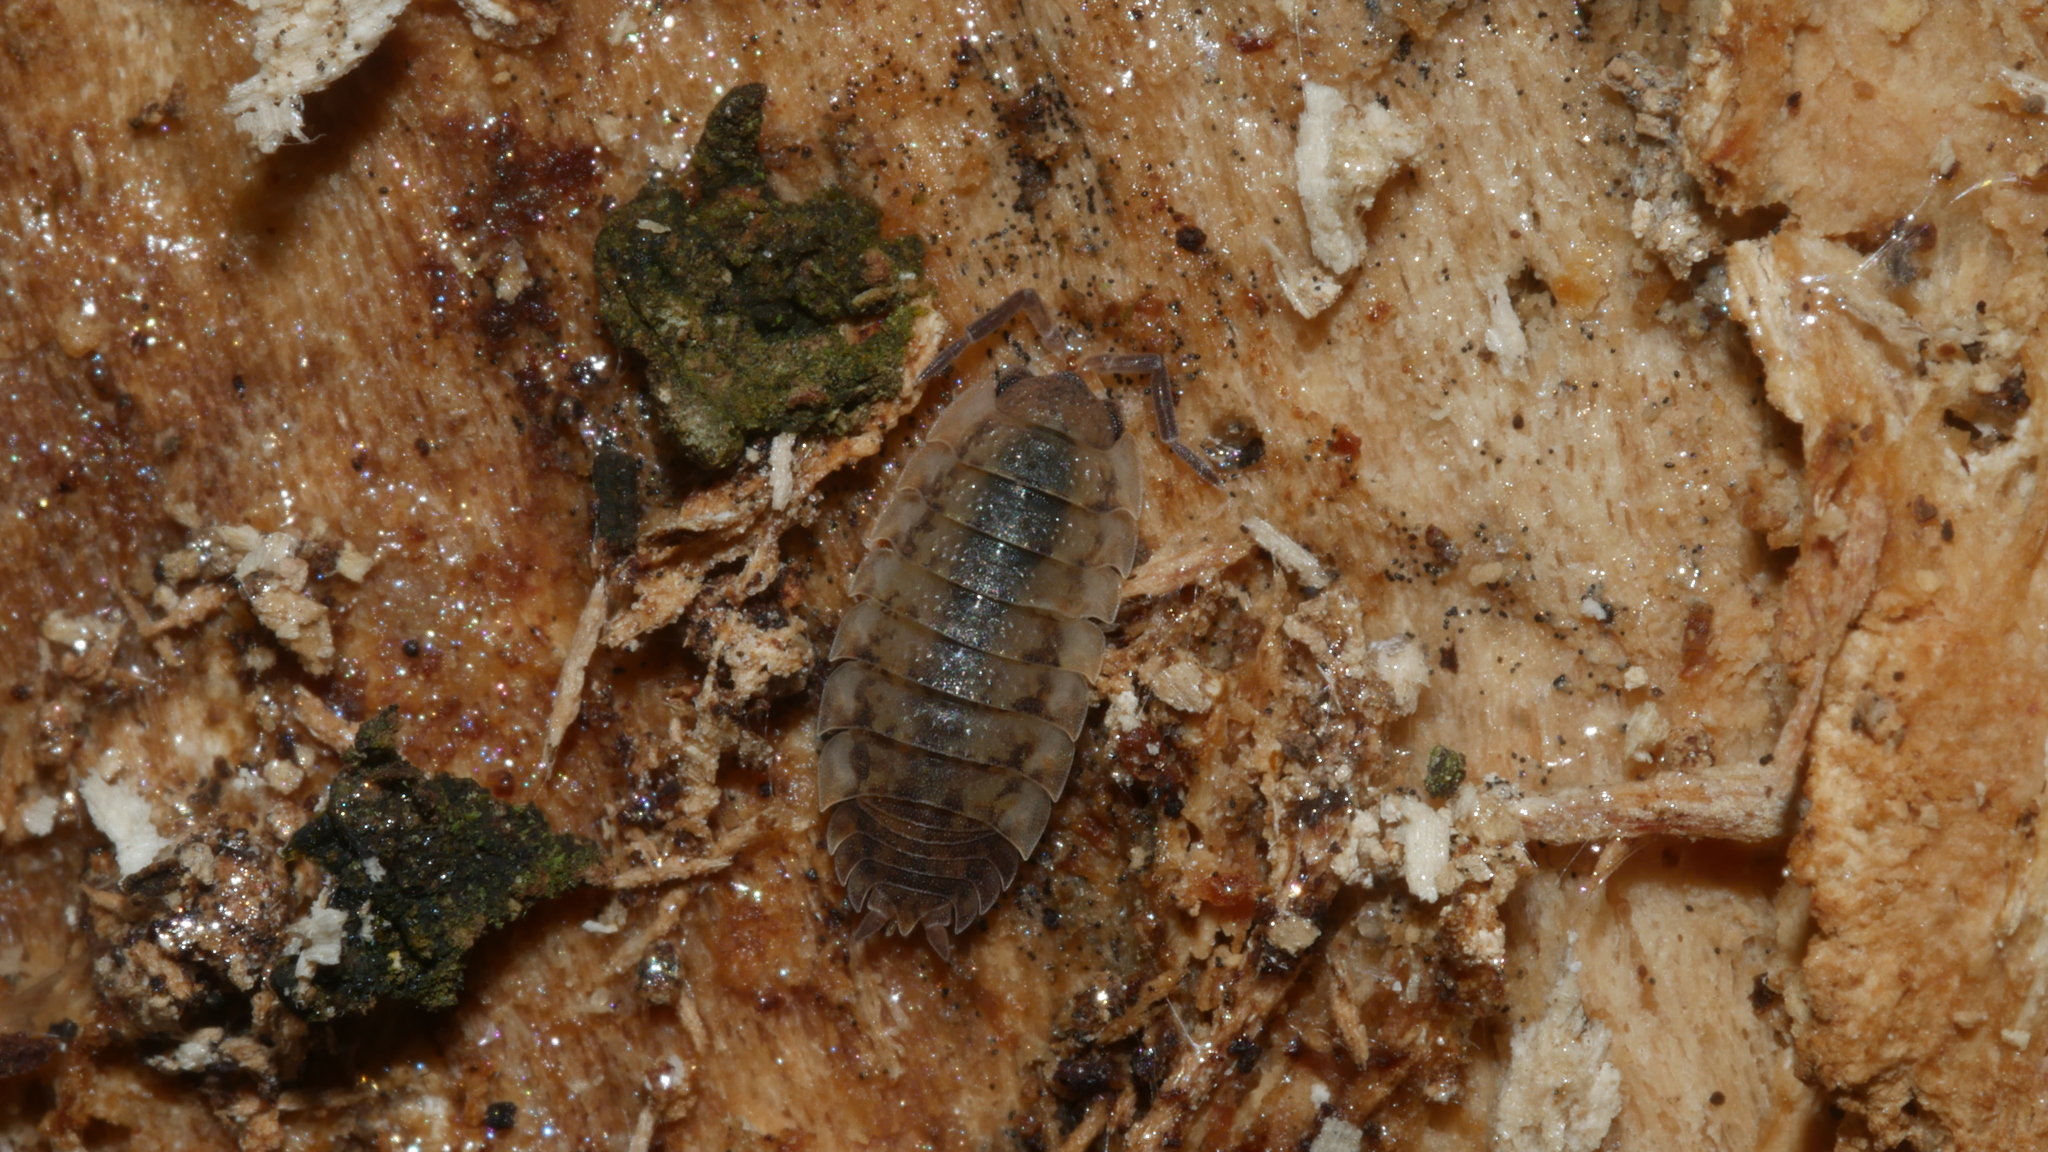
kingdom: Animalia
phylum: Arthropoda
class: Malacostraca
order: Isopoda
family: Porcellionidae
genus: Porcellio
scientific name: Porcellio scaber
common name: Common rough woodlouse
